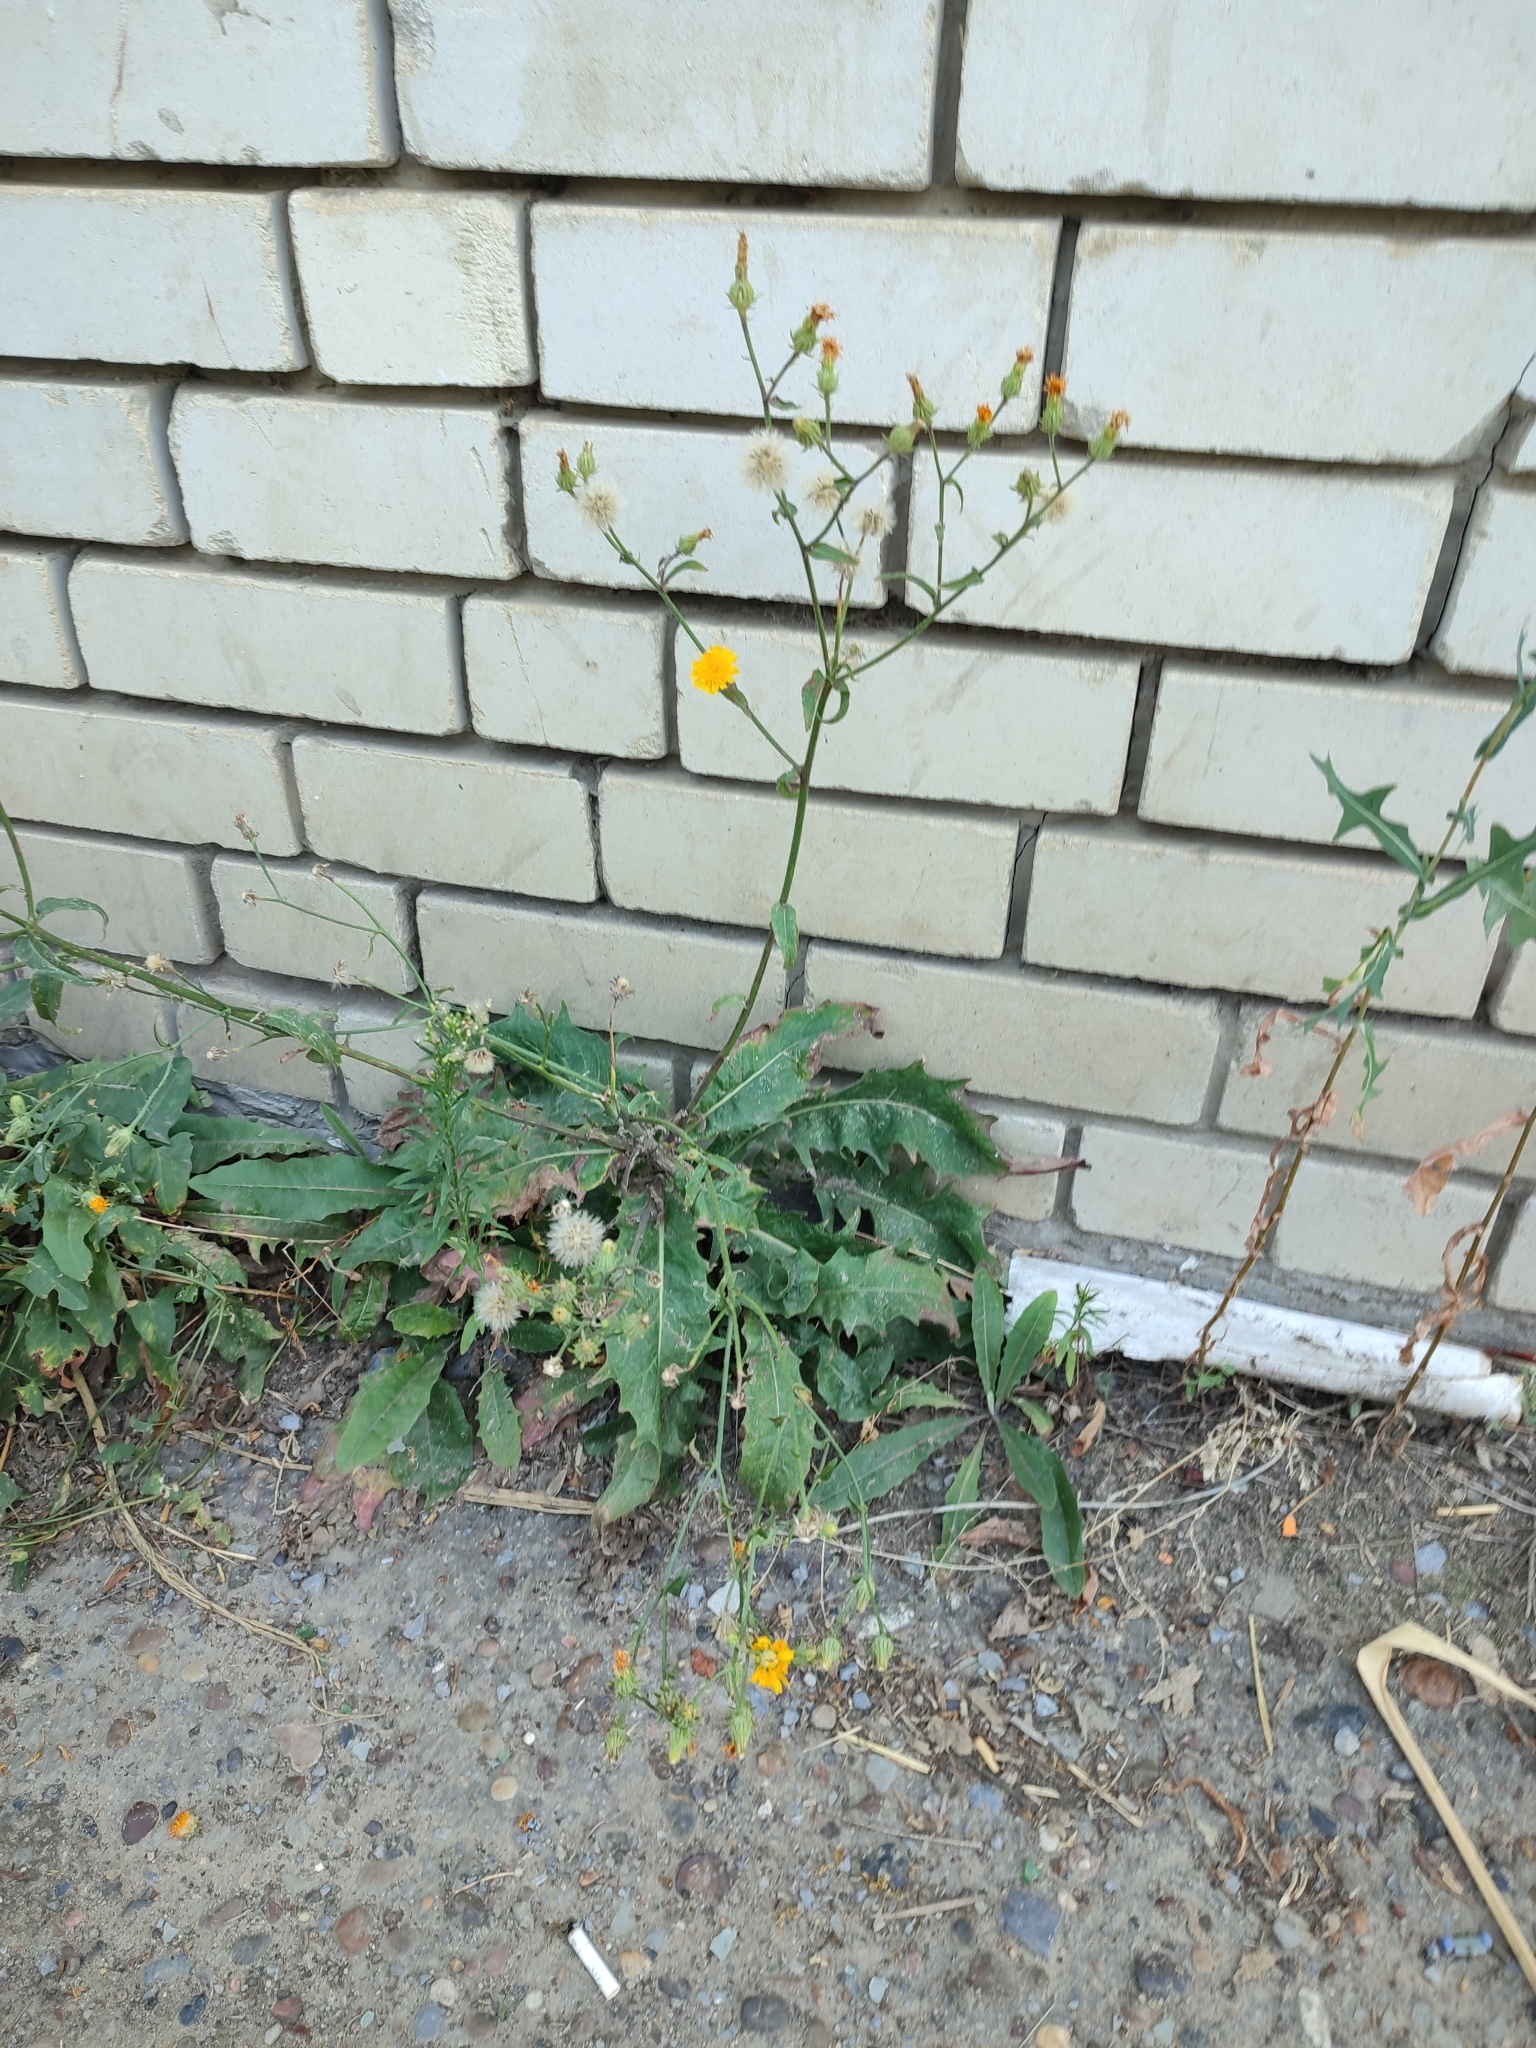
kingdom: Plantae
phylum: Tracheophyta
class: Magnoliopsida
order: Asterales
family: Asteraceae
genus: Picris
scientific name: Picris hieracioides
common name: Hawkweed oxtongue
